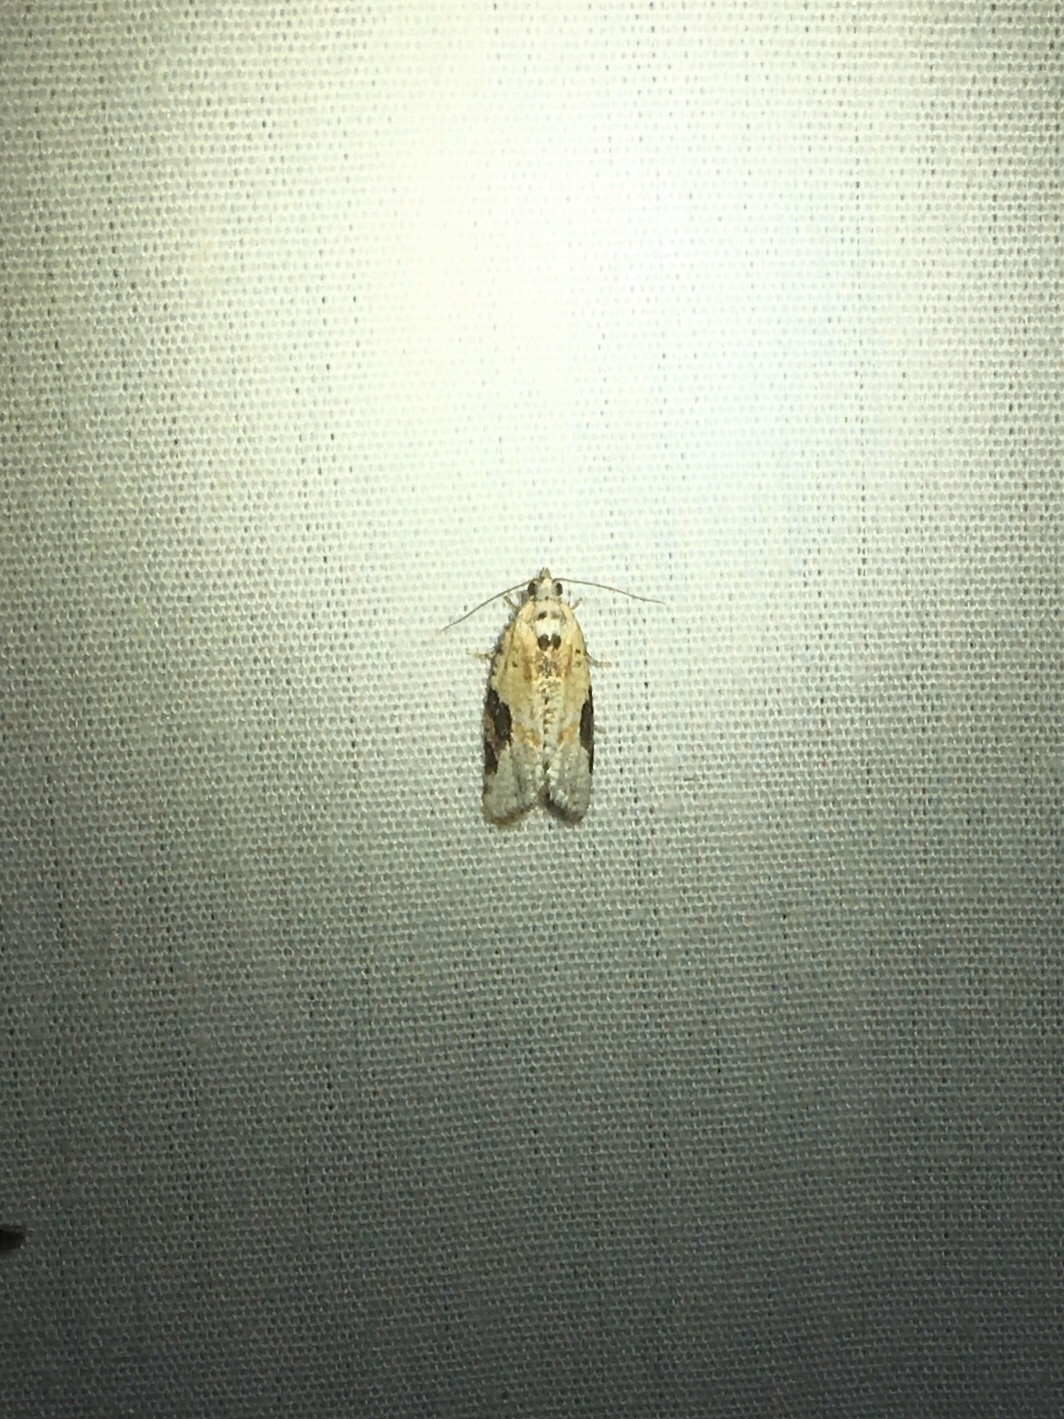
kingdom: Animalia
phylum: Arthropoda
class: Insecta
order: Lepidoptera
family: Tortricidae
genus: Argyrotaenia
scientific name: Argyrotaenia mariana
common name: Gray-banded leafroller moth
